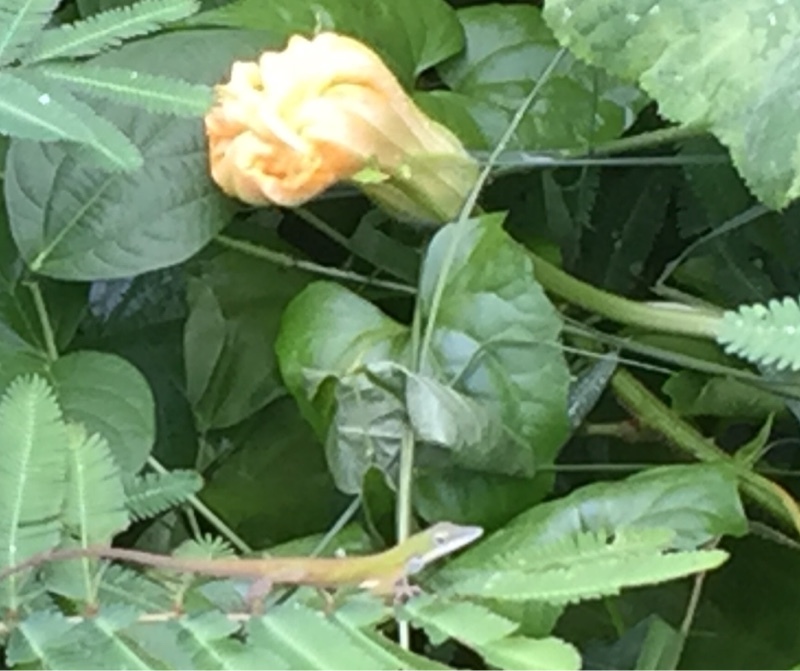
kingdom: Animalia
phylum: Chordata
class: Squamata
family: Dactyloidae
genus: Anolis
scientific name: Anolis porcatus
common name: Cuban green anole
